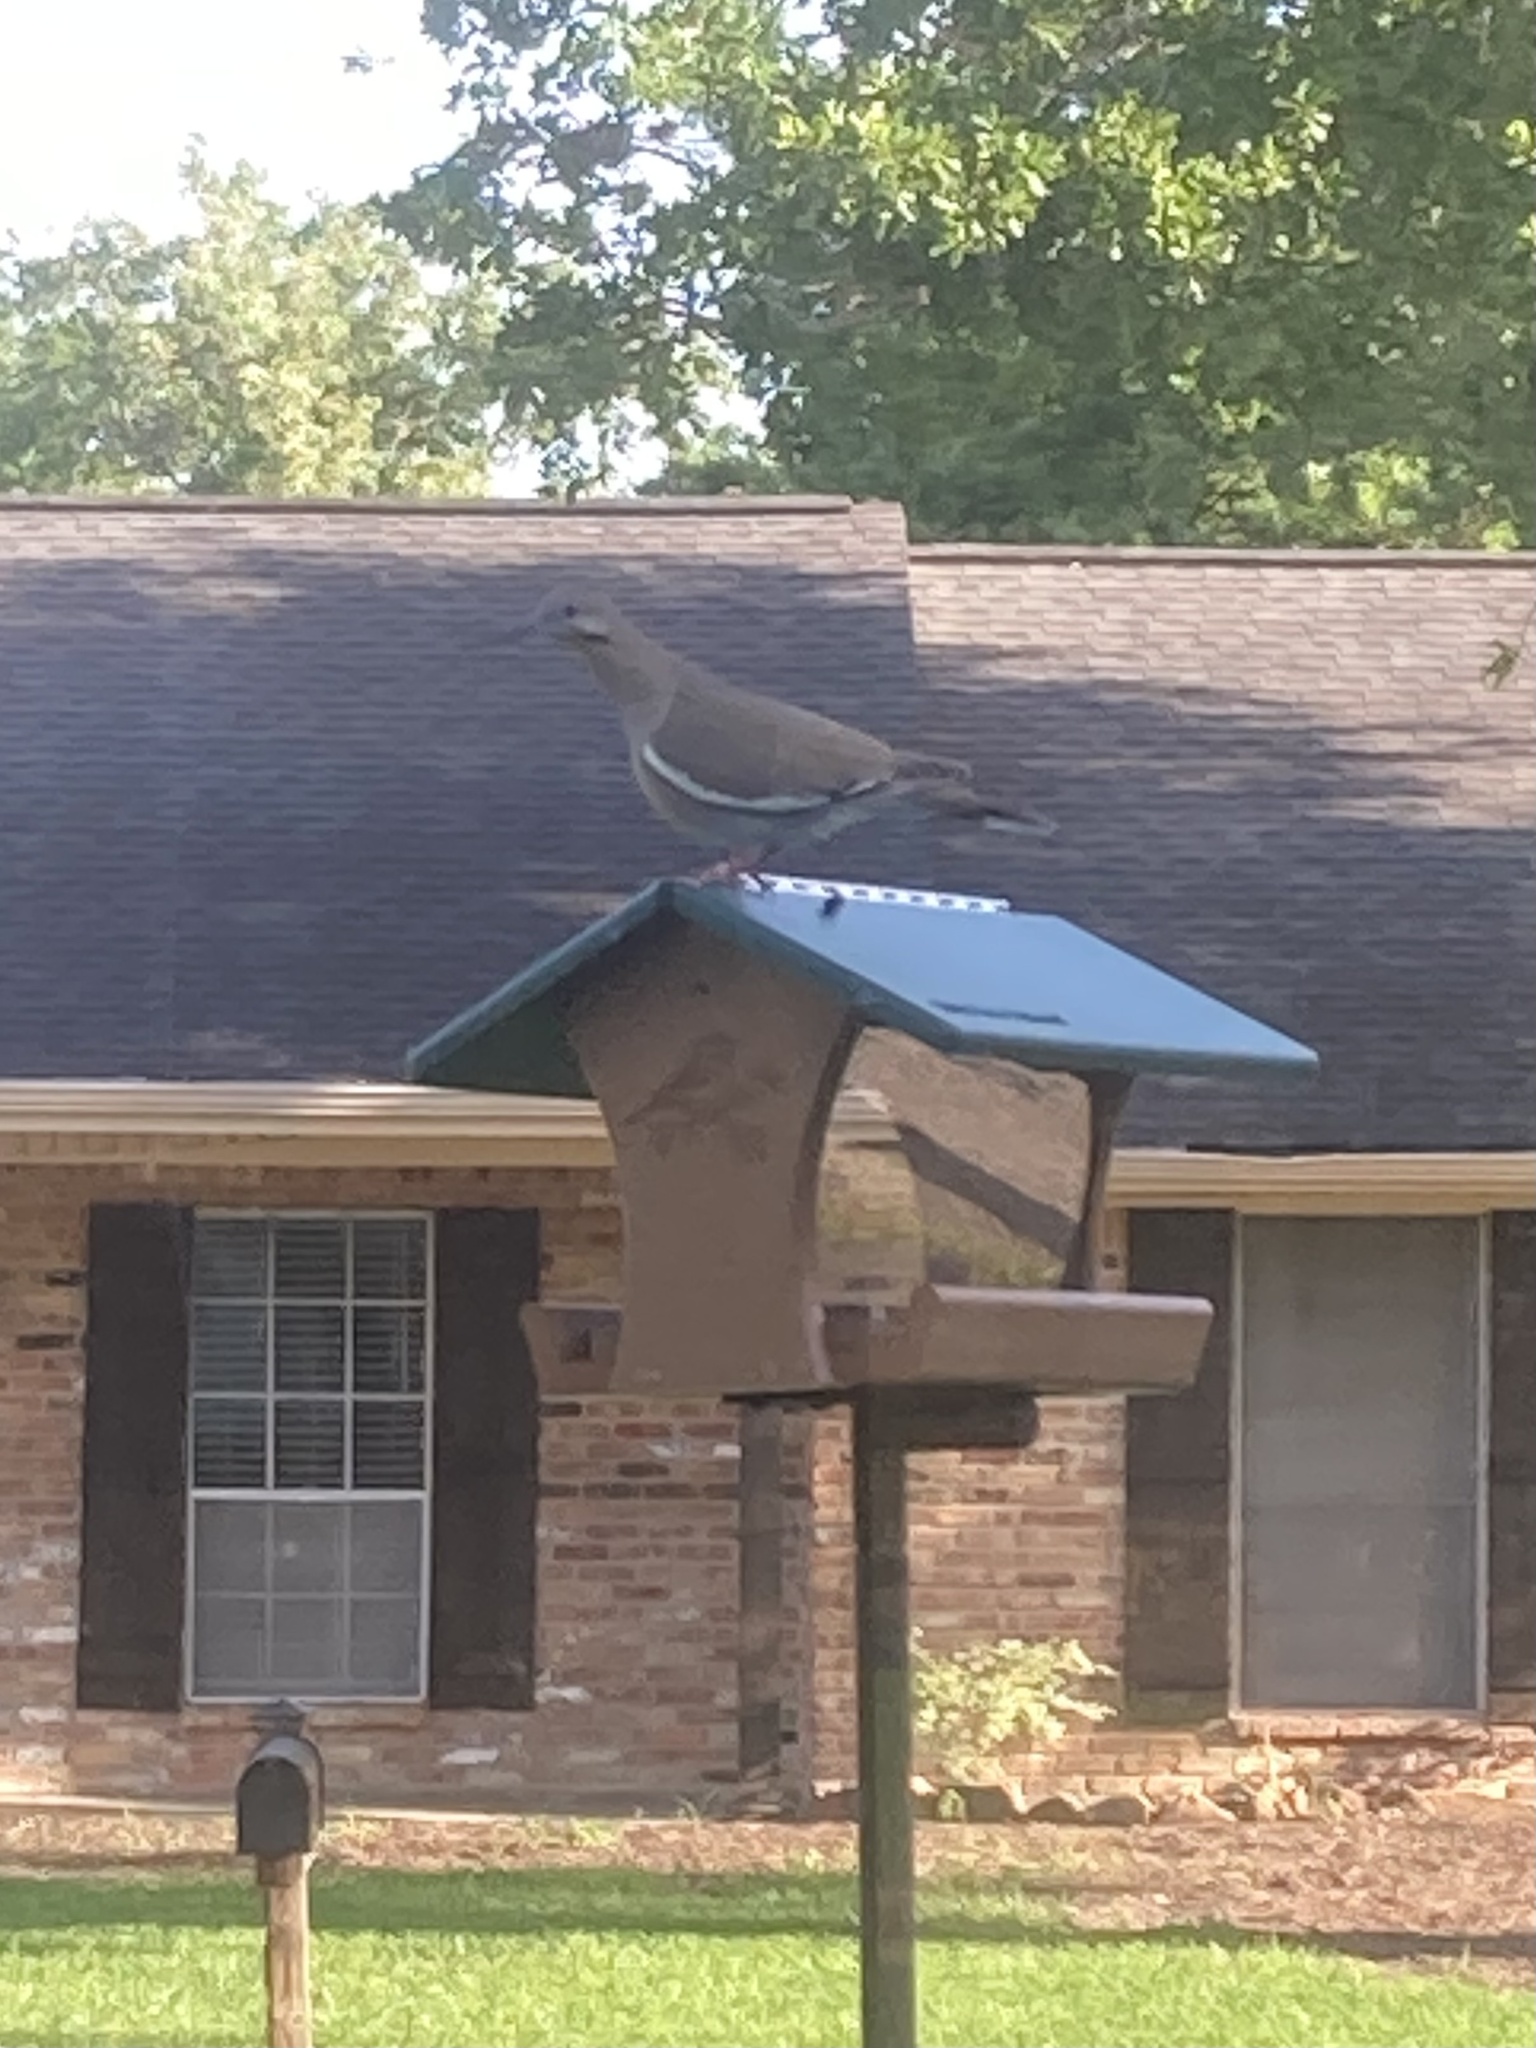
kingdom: Animalia
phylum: Chordata
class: Aves
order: Columbiformes
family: Columbidae
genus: Zenaida
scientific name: Zenaida asiatica
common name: White-winged dove
